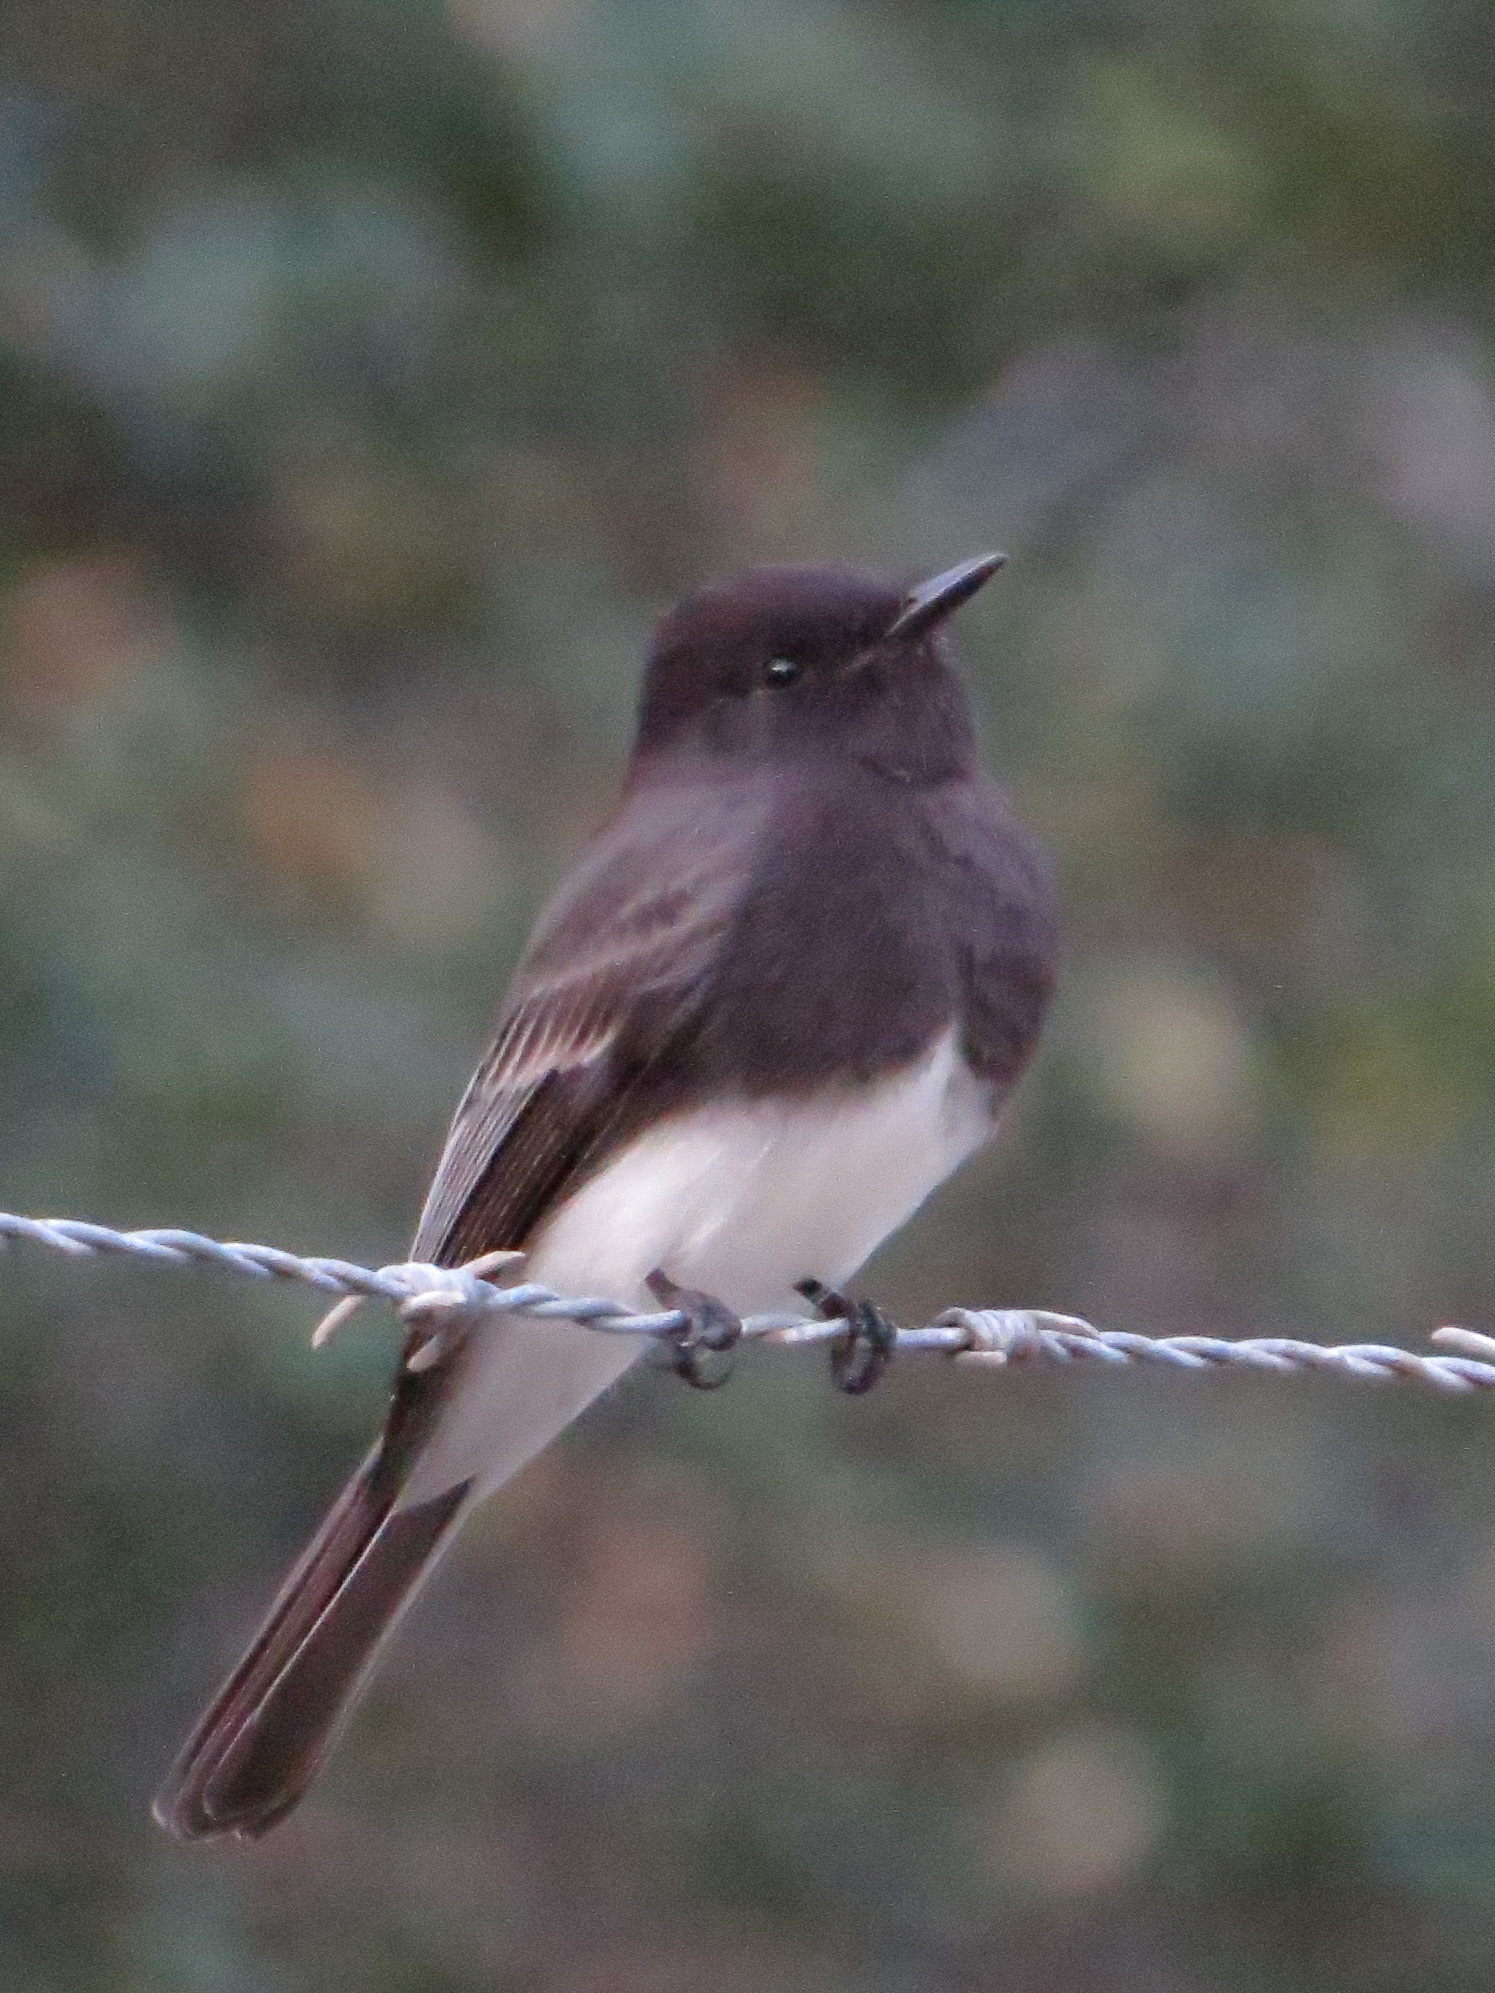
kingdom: Animalia
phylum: Chordata
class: Aves
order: Passeriformes
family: Tyrannidae
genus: Sayornis
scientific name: Sayornis nigricans
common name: Black phoebe
